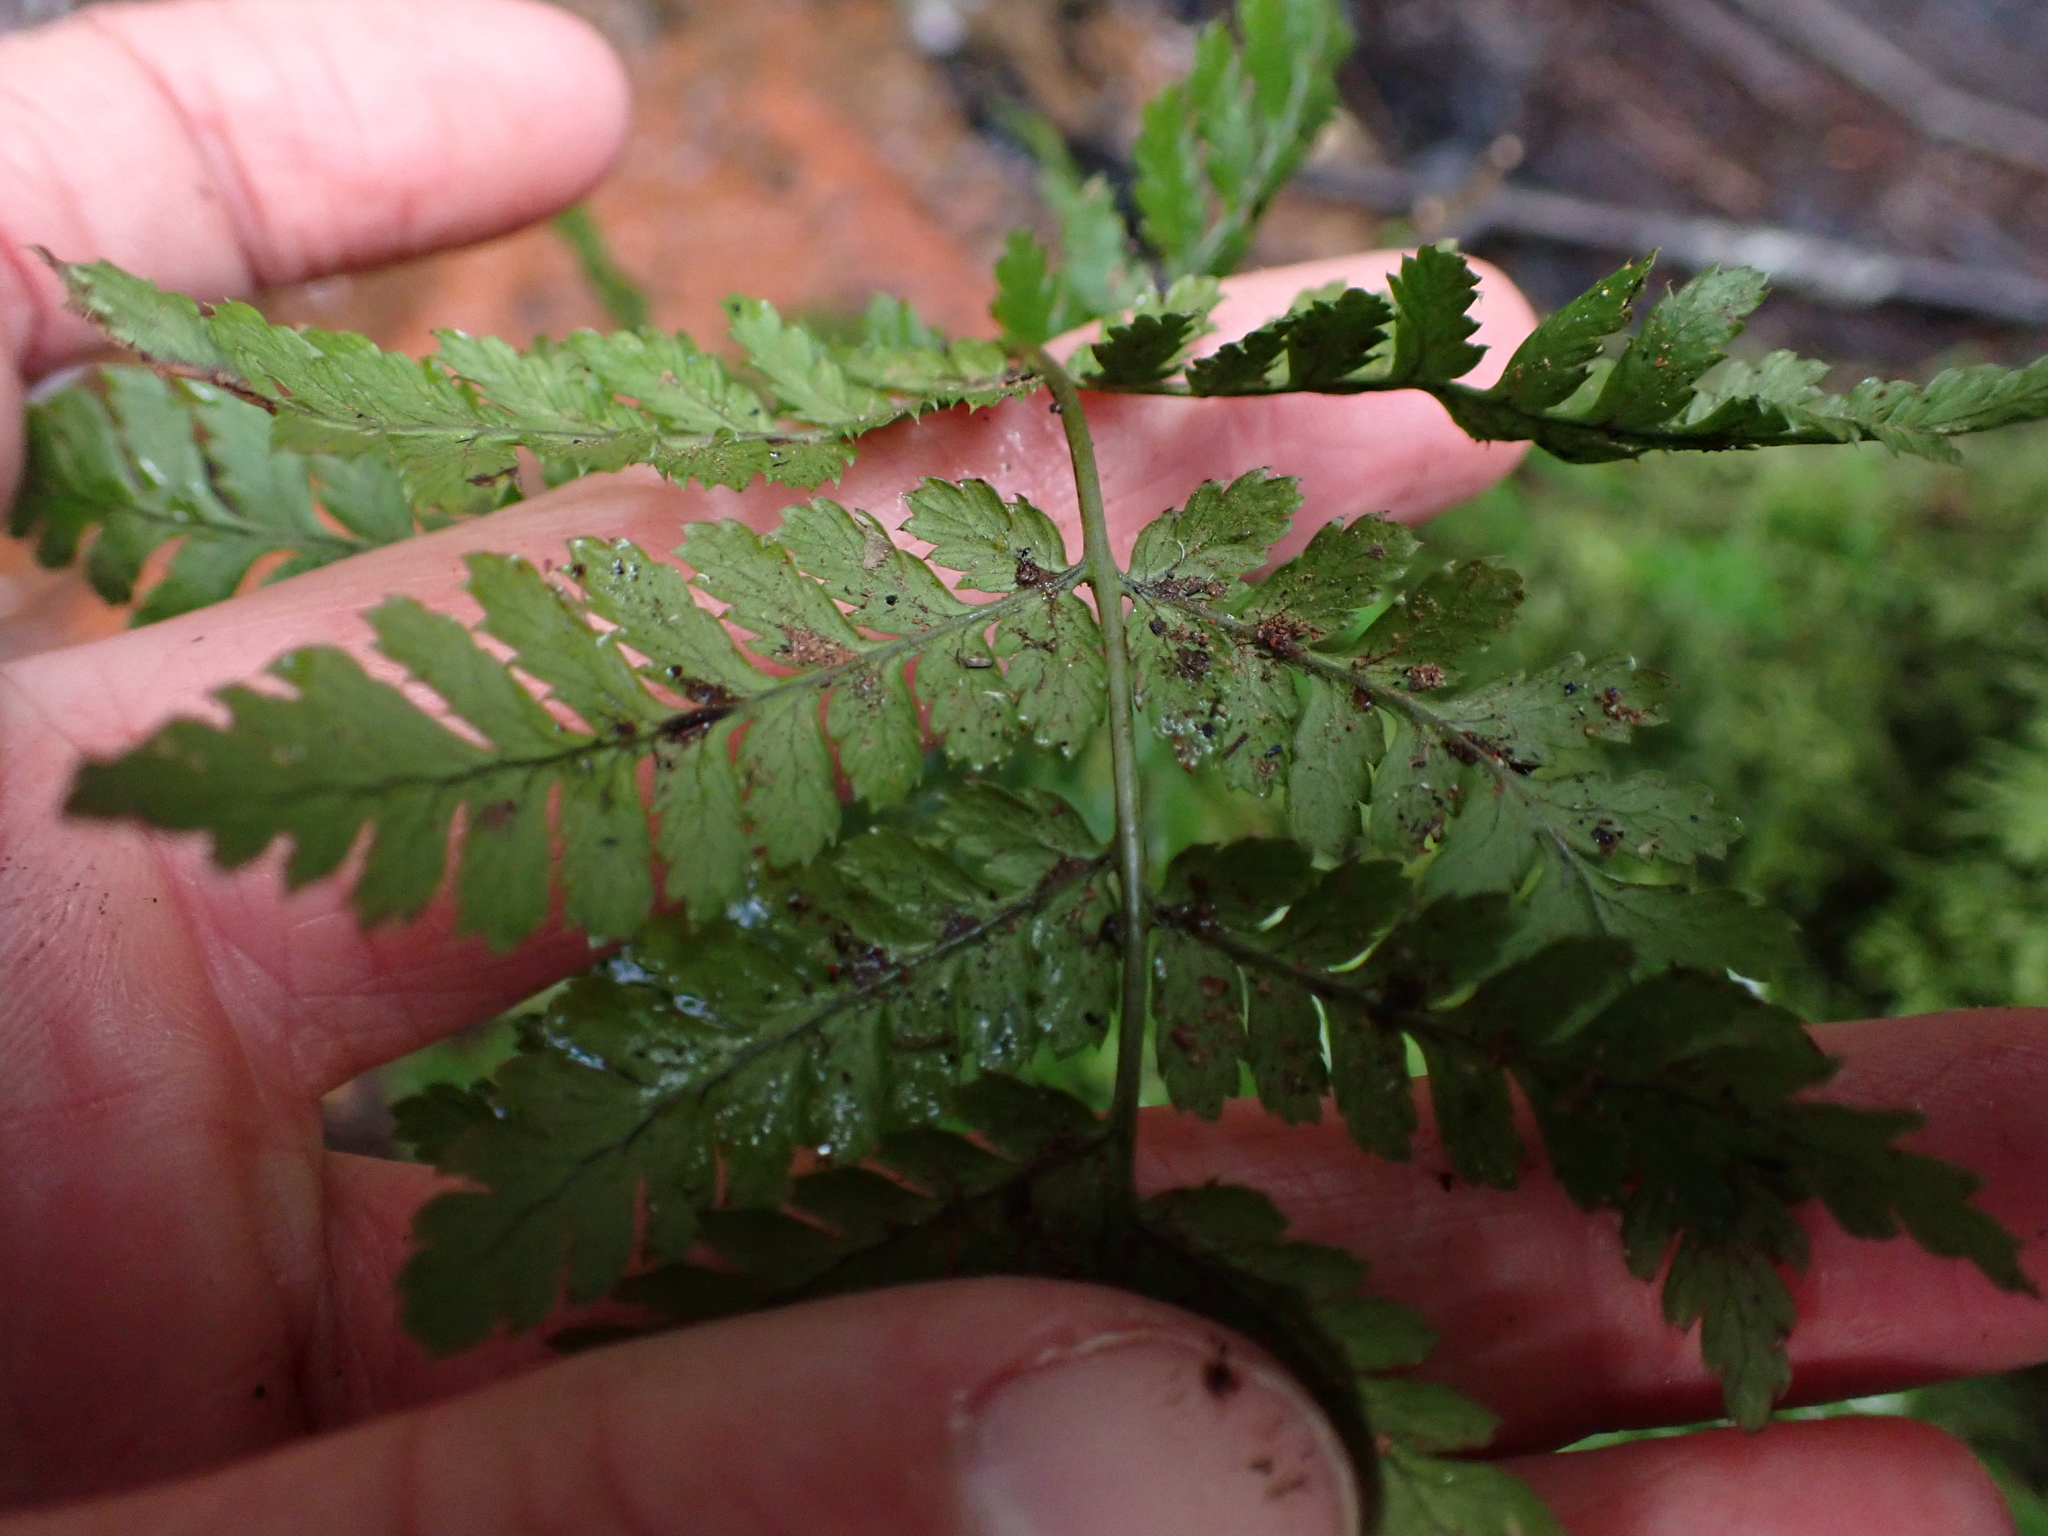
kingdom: Plantae
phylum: Tracheophyta
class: Polypodiopsida
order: Polypodiales
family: Dryopteridaceae
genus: Dryopteris
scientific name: Dryopteris expansa
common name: Northern buckler fern
